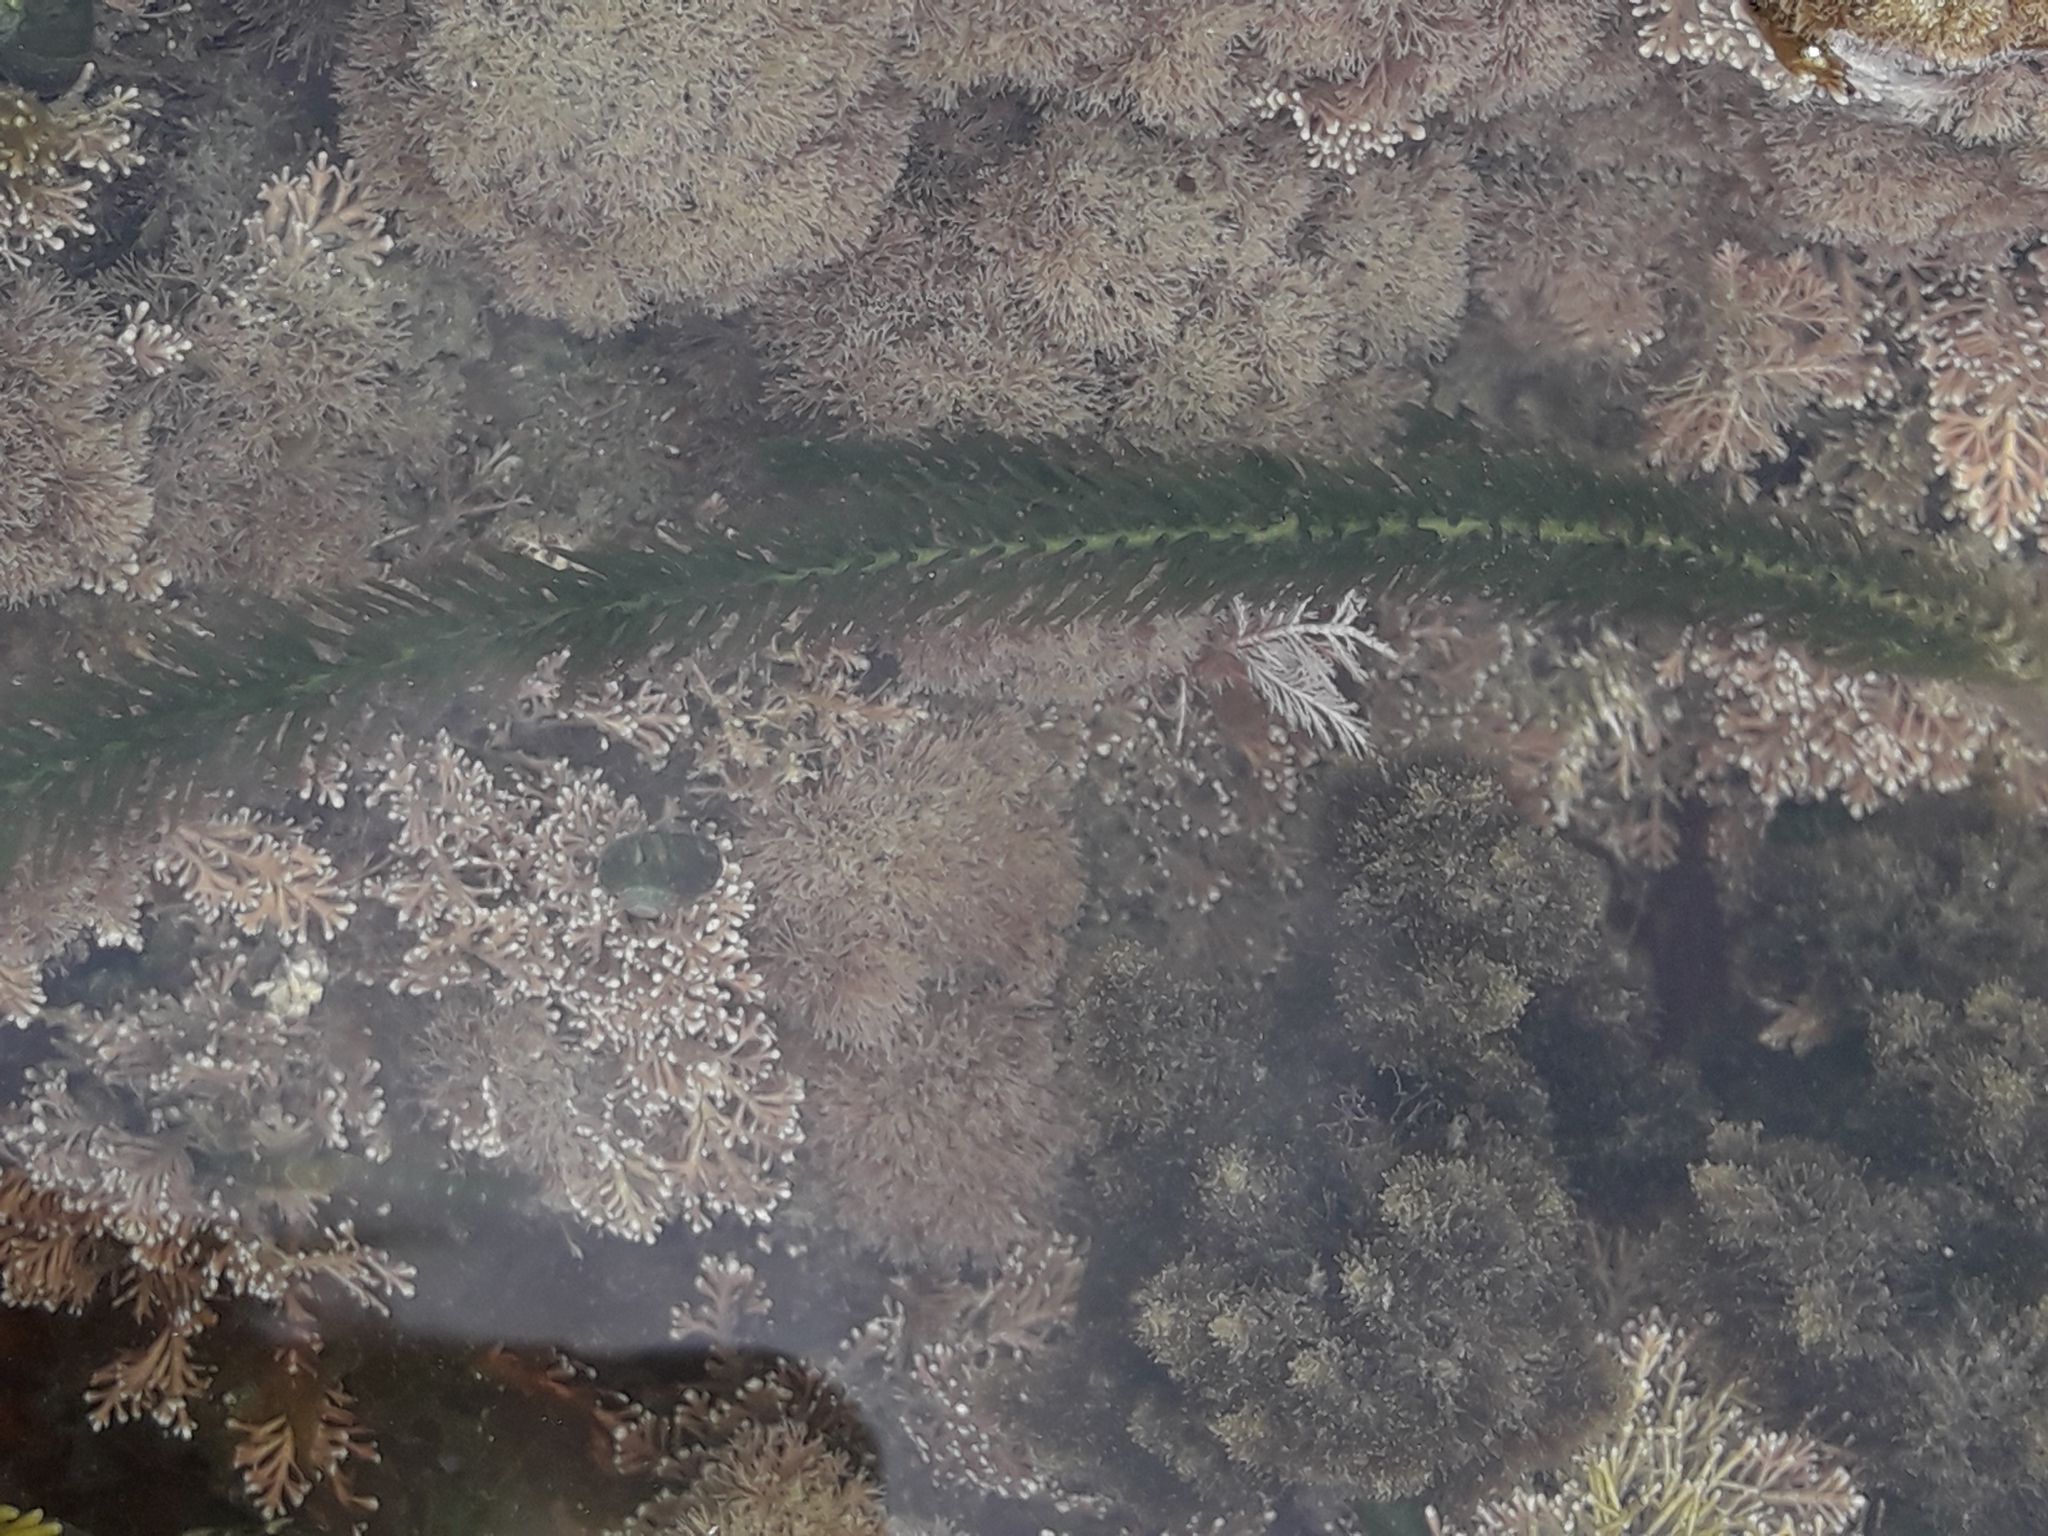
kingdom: Plantae
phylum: Chlorophyta
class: Ulvophyceae
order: Bryopsidales
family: Caulerpaceae
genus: Caulerpa
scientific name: Caulerpa brownii
